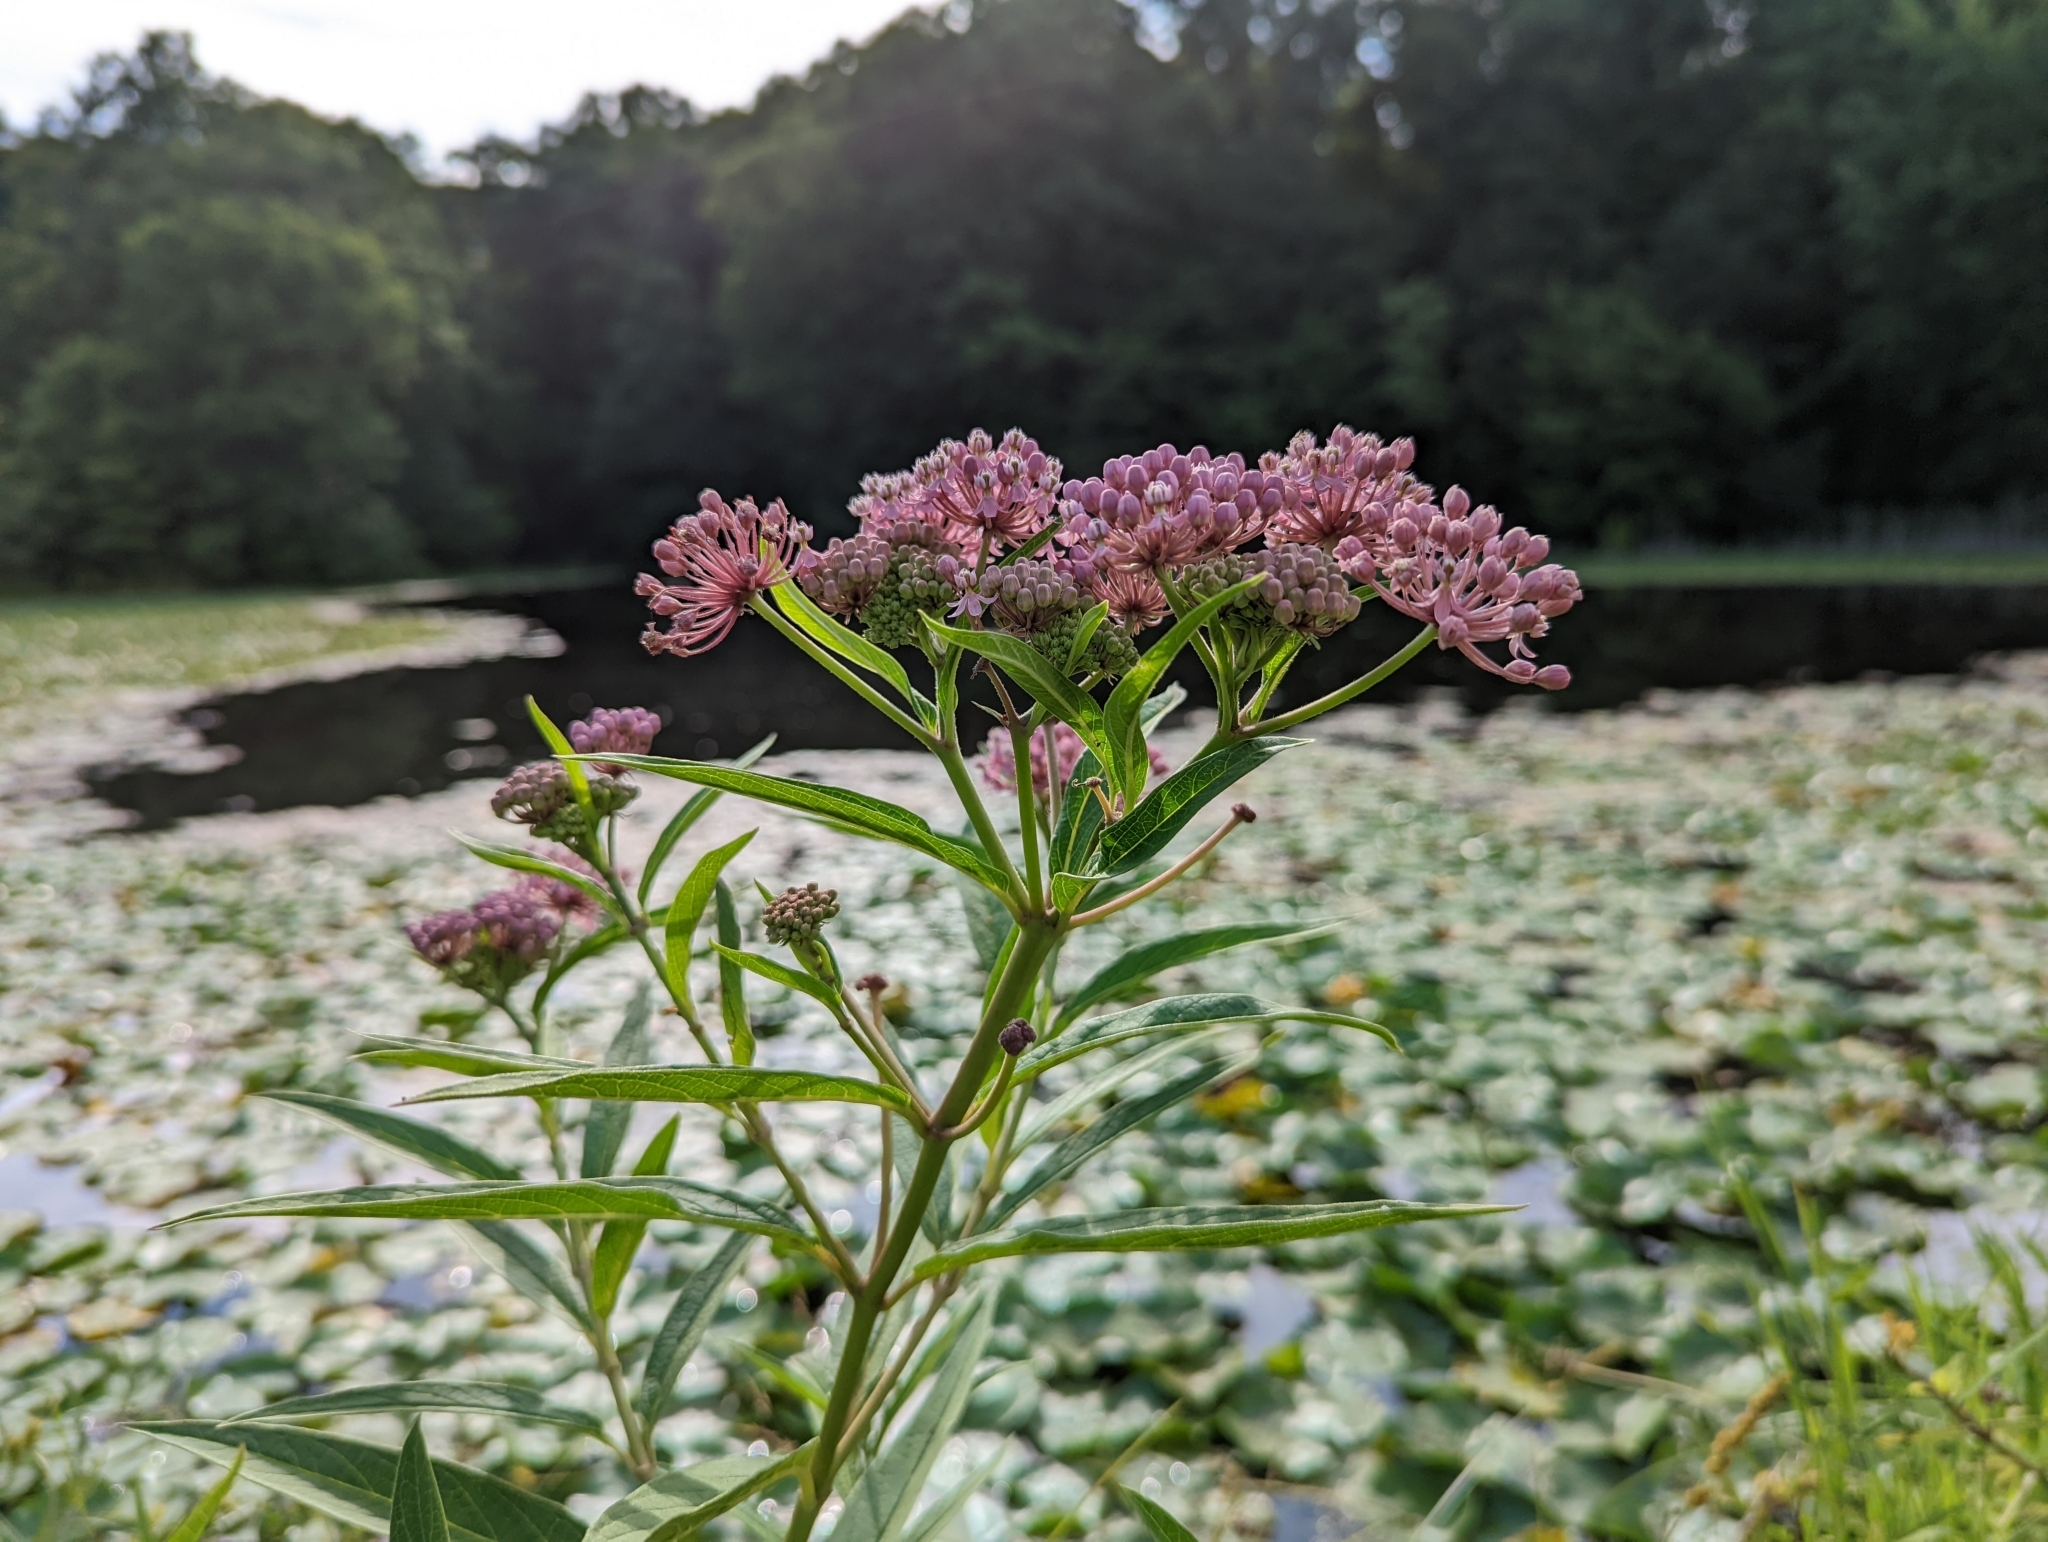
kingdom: Plantae
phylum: Tracheophyta
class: Magnoliopsida
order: Gentianales
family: Apocynaceae
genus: Asclepias
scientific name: Asclepias incarnata
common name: Swamp milkweed
